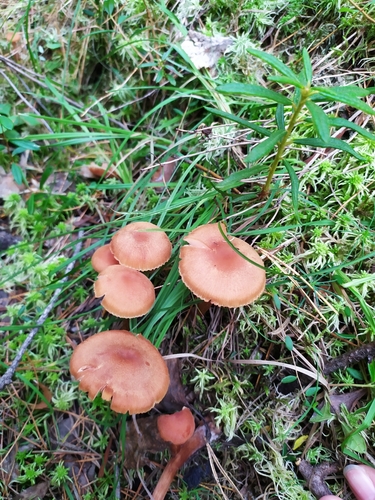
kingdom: Fungi
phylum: Basidiomycota
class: Agaricomycetes
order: Agaricales
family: Hydnangiaceae
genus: Laccaria
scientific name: Laccaria
